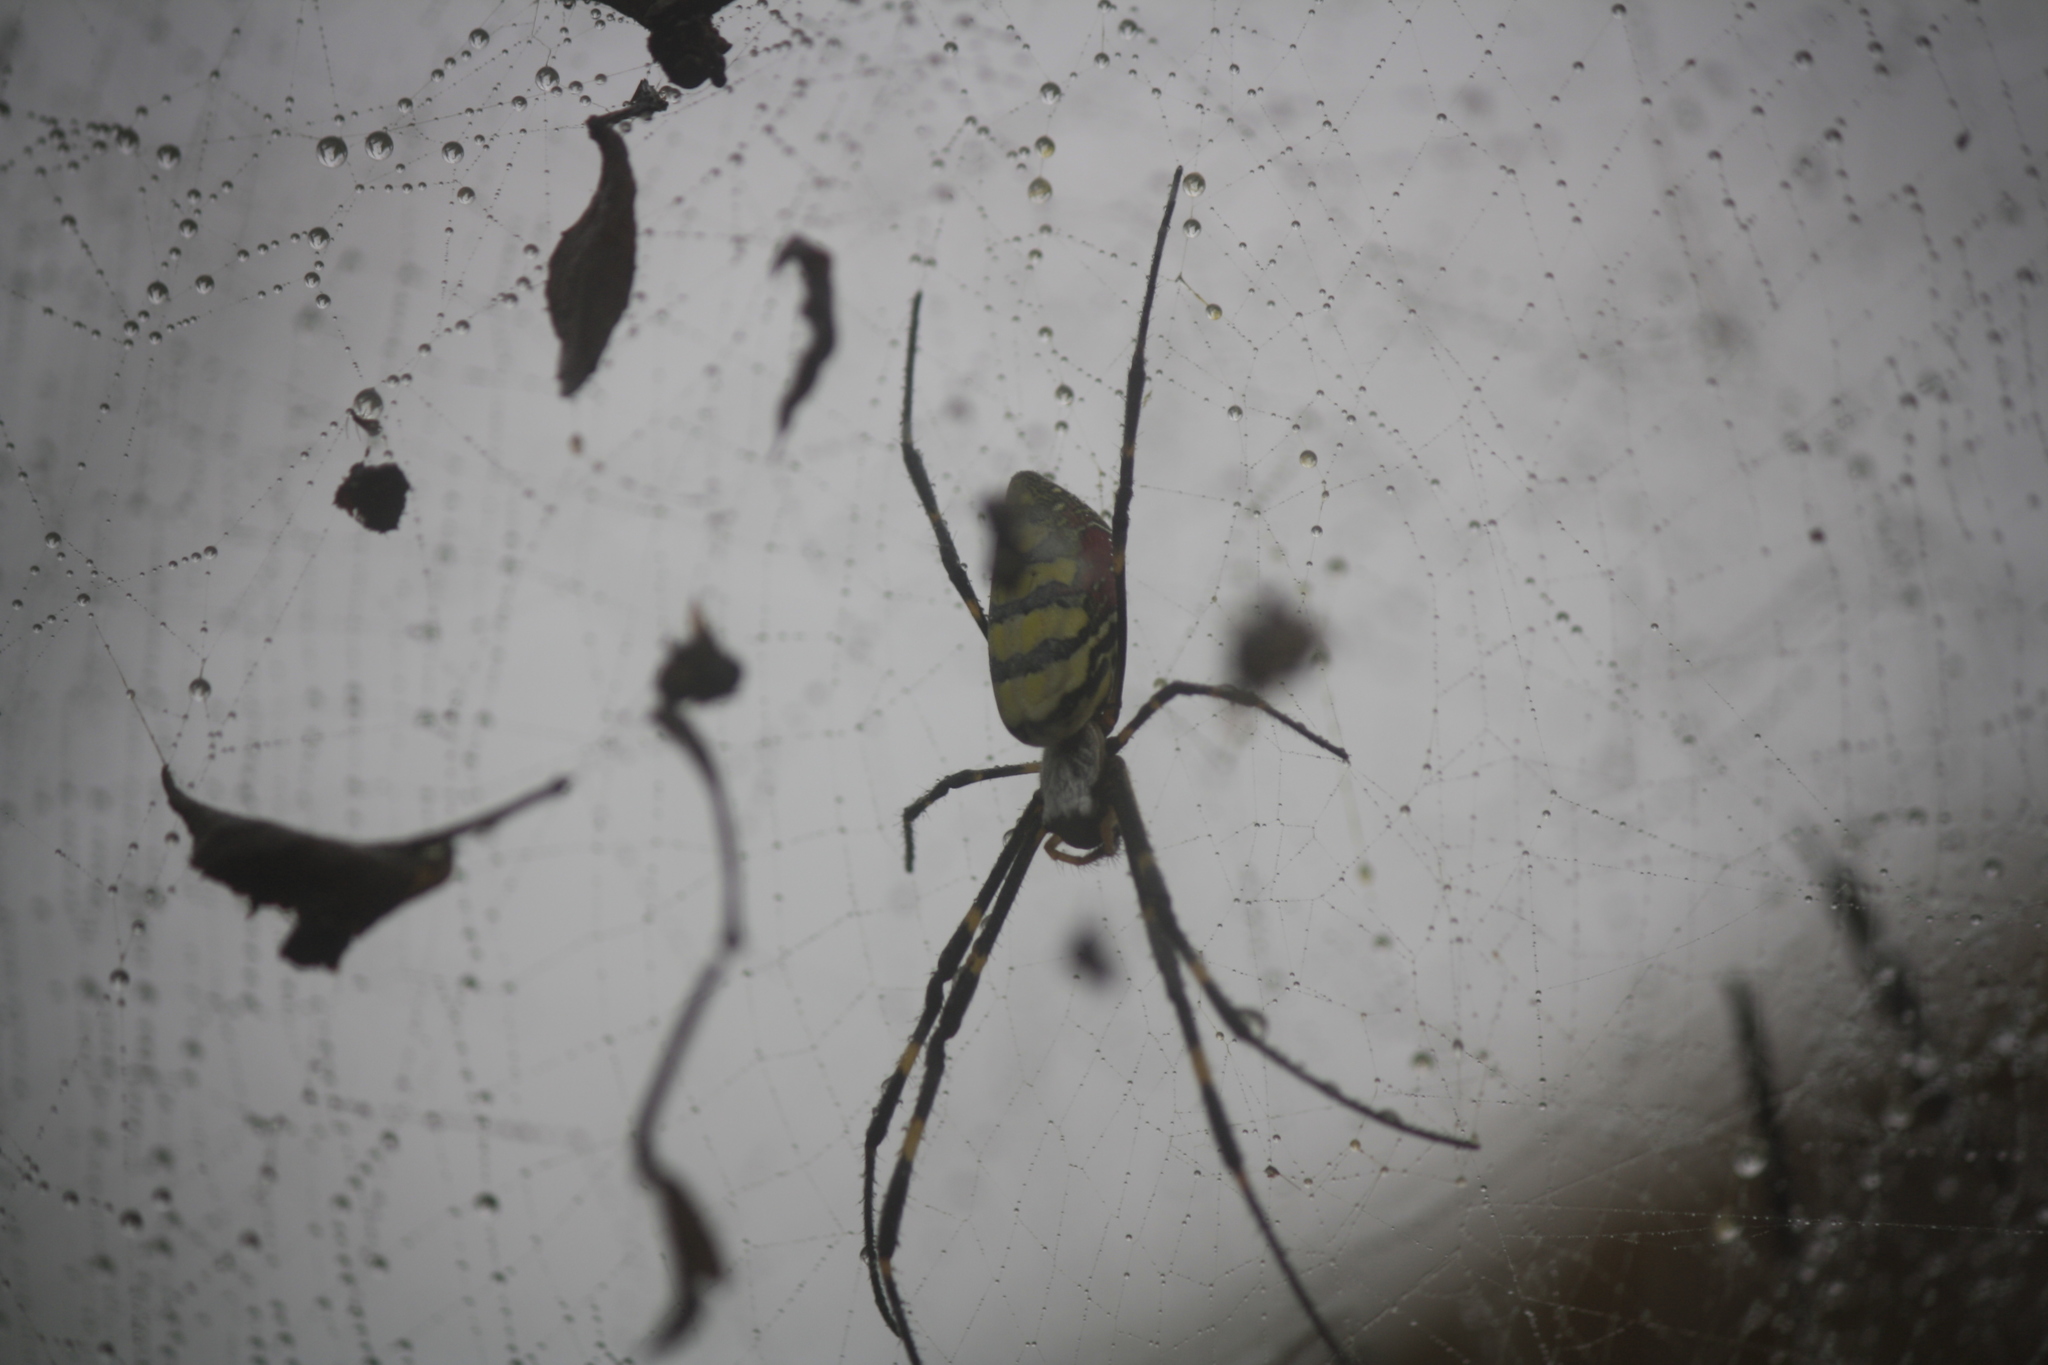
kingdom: Animalia
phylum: Arthropoda
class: Arachnida
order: Araneae
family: Araneidae
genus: Trichonephila
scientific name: Trichonephila clavata
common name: Jorō spider
